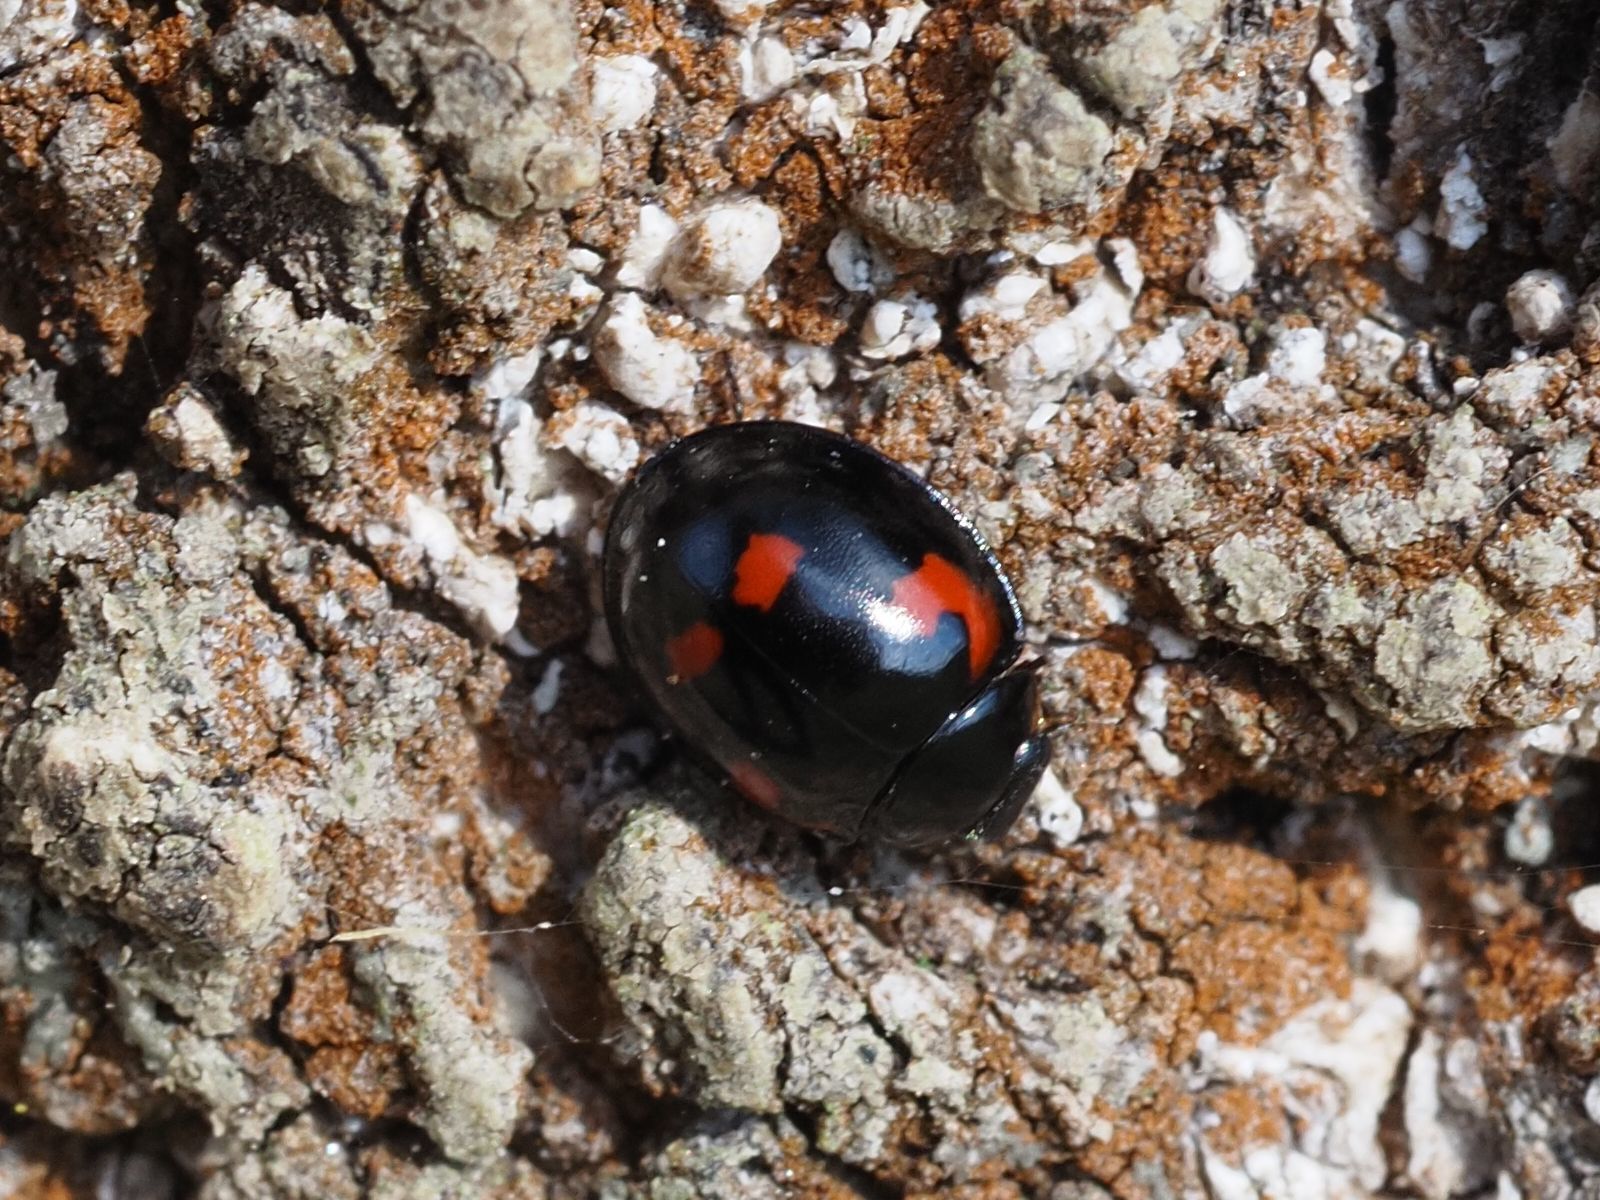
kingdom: Animalia
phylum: Arthropoda
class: Insecta
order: Coleoptera
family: Coccinellidae
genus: Brumus
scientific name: Brumus quadripustulatus
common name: Ladybird beetle
